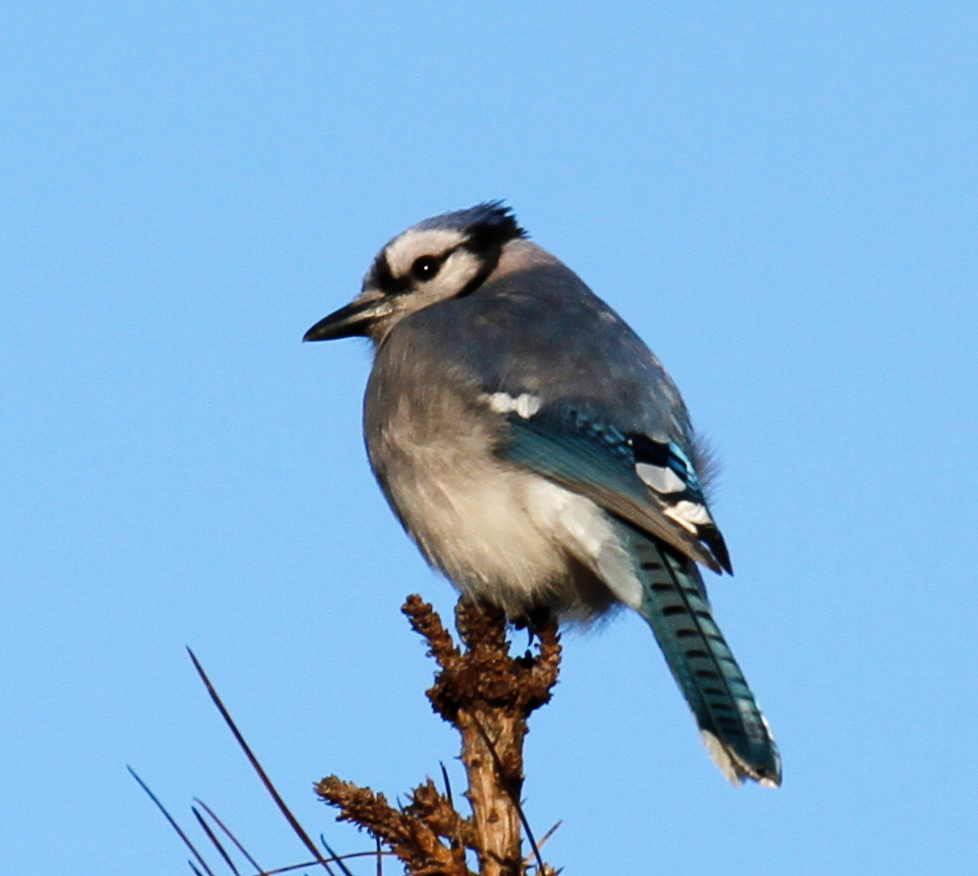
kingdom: Animalia
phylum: Chordata
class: Aves
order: Passeriformes
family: Corvidae
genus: Cyanocitta
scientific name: Cyanocitta cristata
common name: Blue jay
